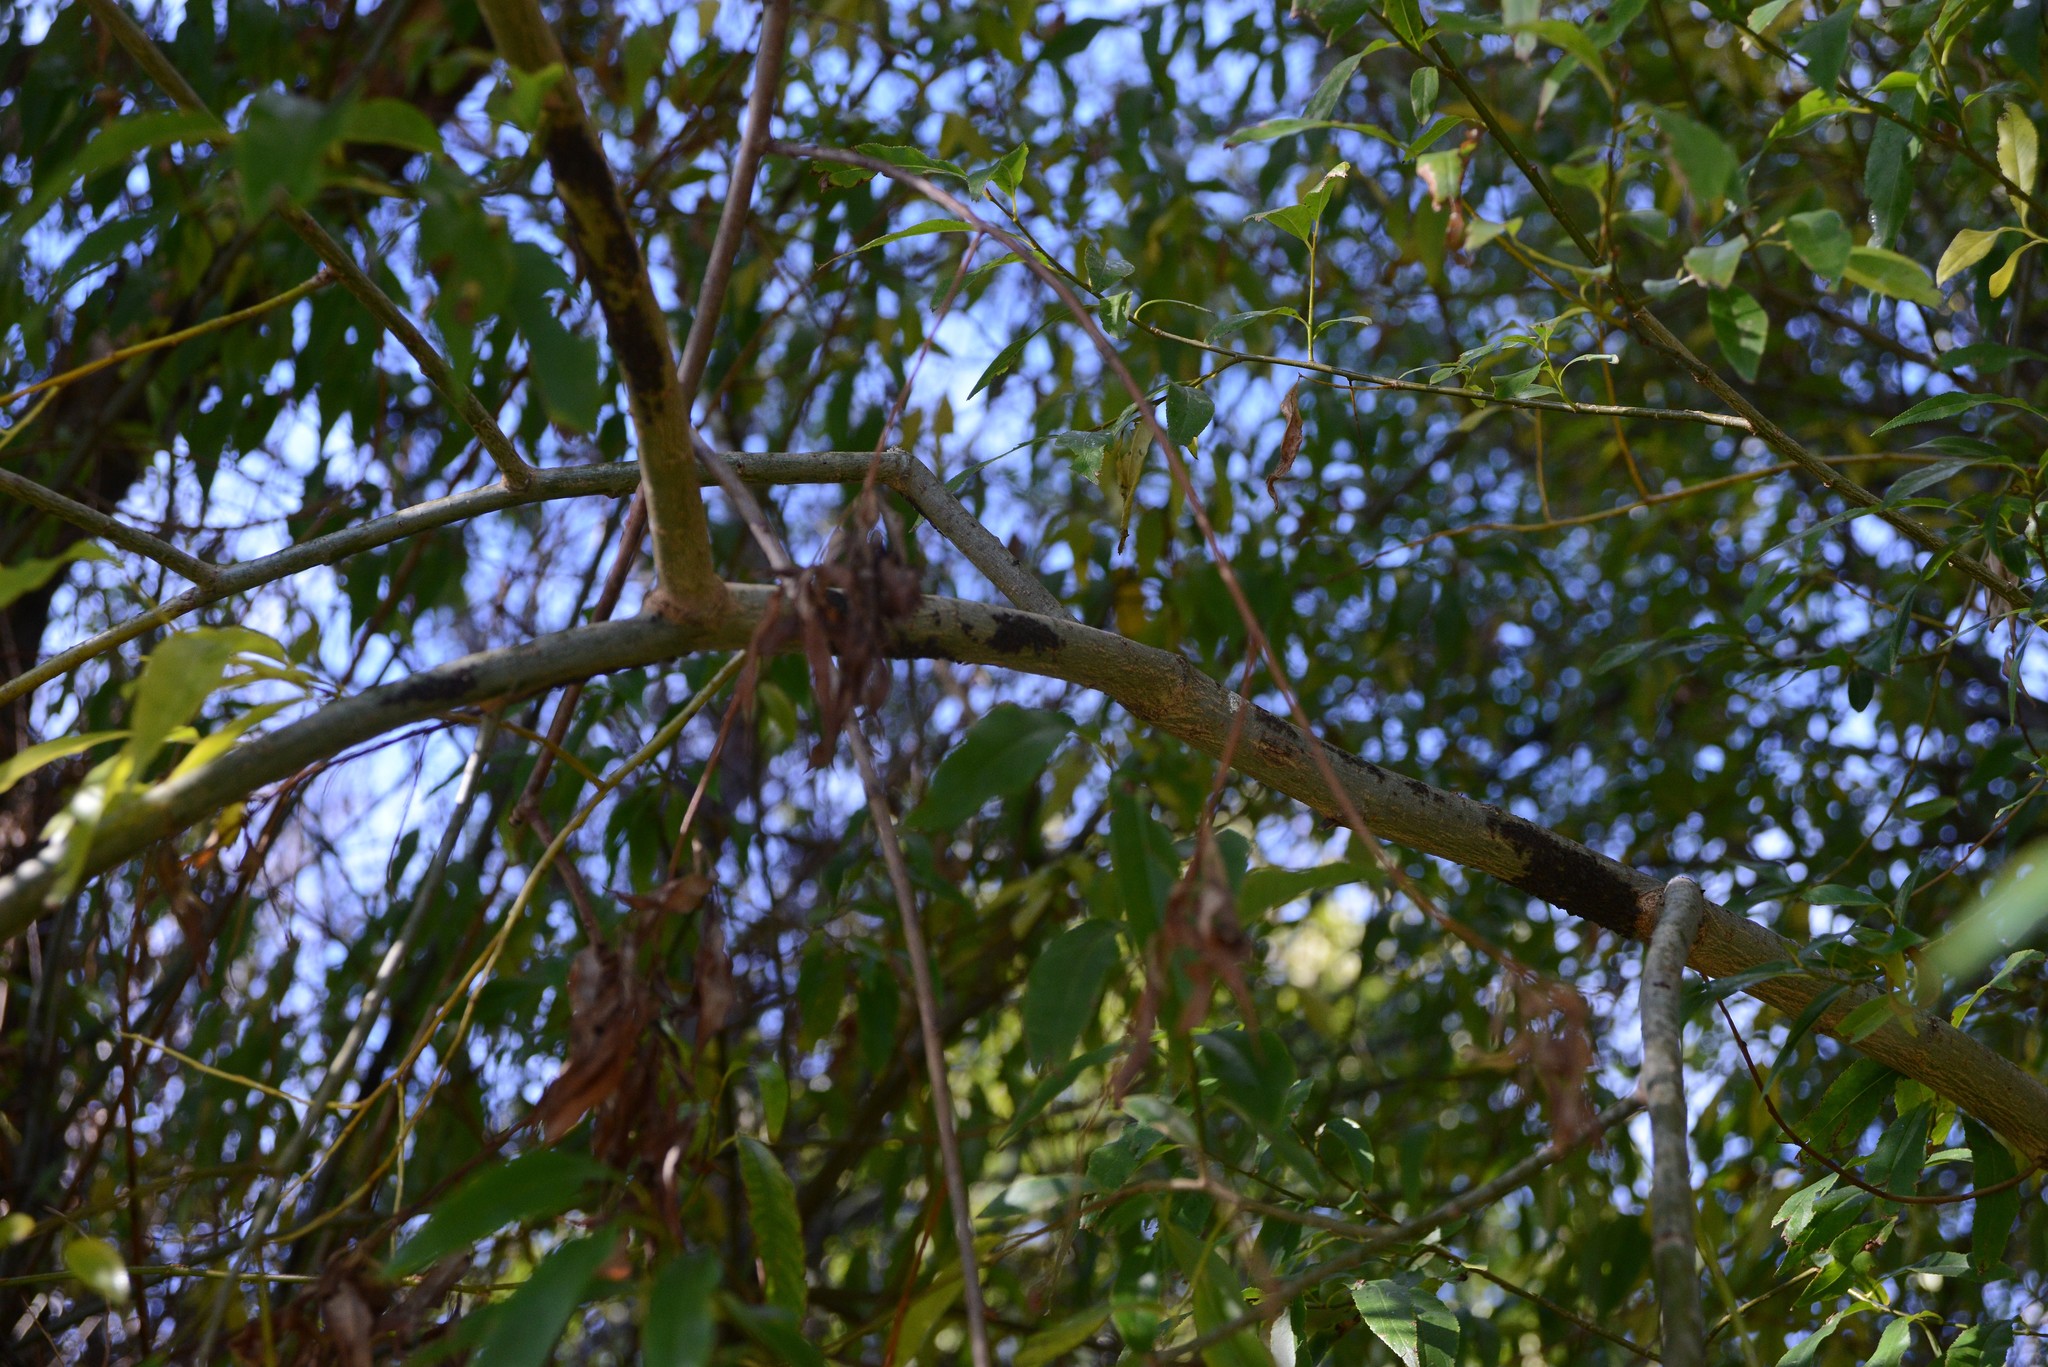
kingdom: Animalia
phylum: Arthropoda
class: Insecta
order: Hemiptera
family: Aphididae
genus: Tuberolachnus
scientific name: Tuberolachnus salignus
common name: Giant willow aphid
